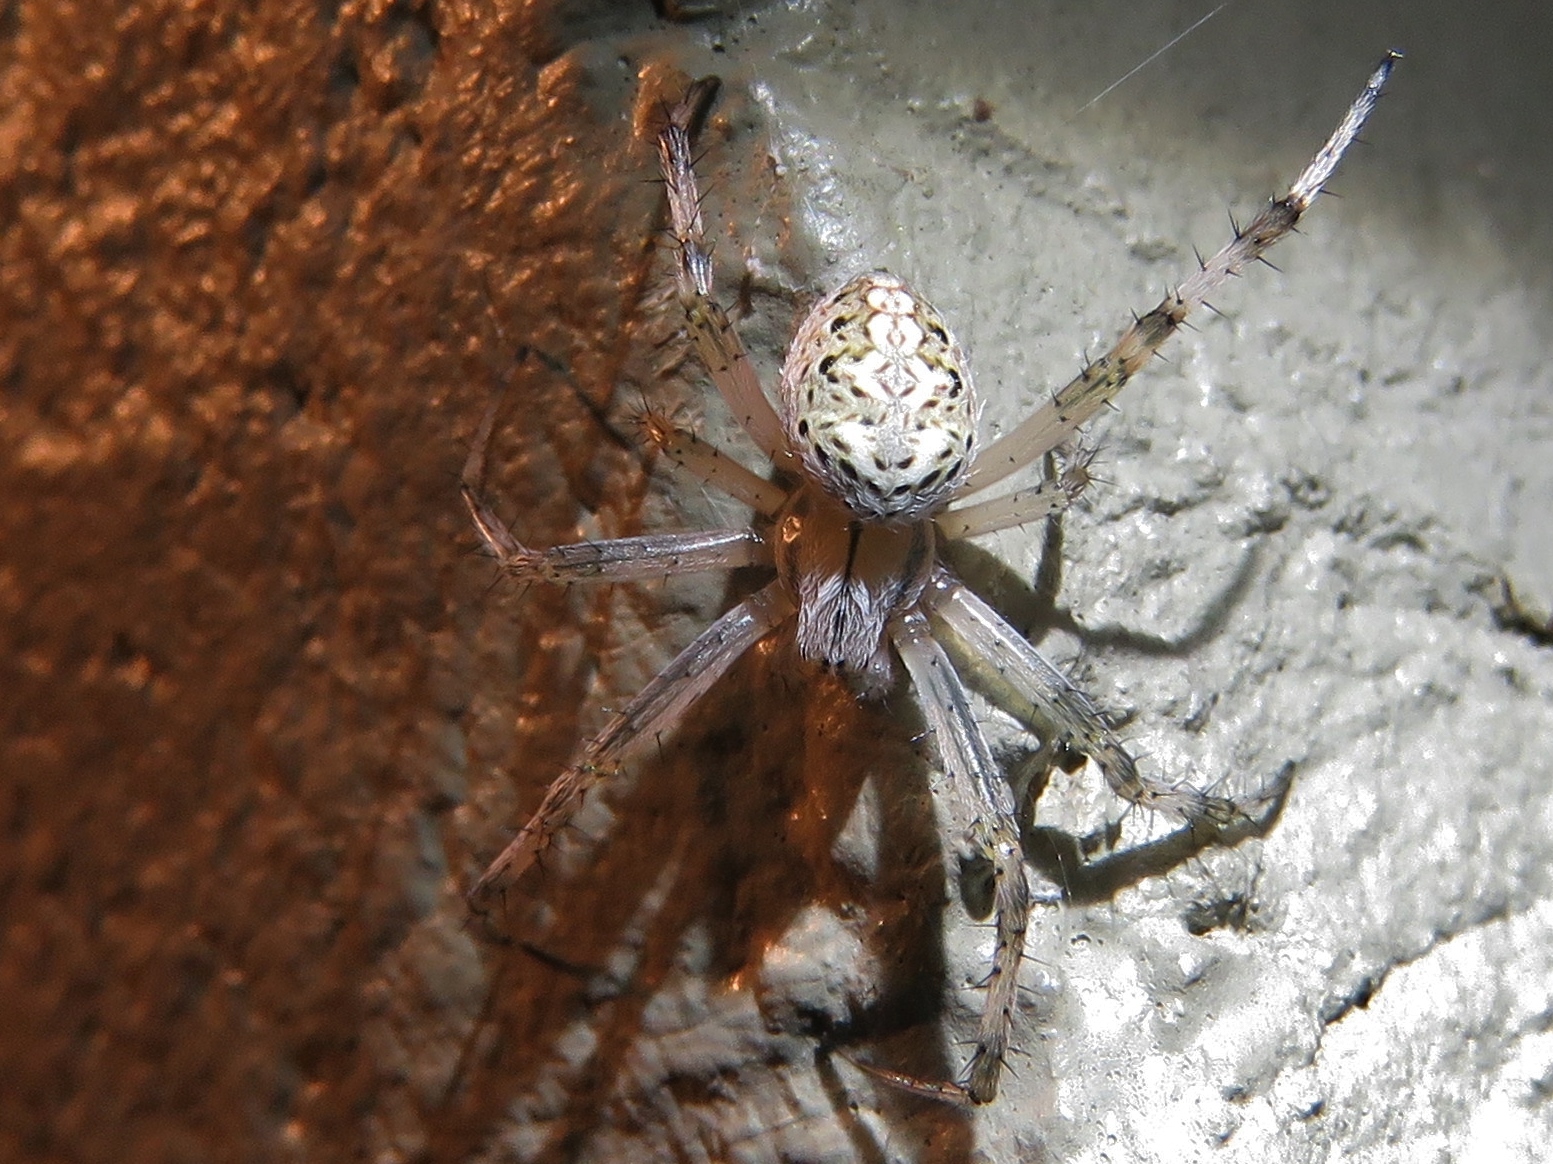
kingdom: Animalia
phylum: Arthropoda
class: Arachnida
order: Araneae
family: Araneidae
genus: Neoscona
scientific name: Neoscona oaxacensis
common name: Orb weavers
